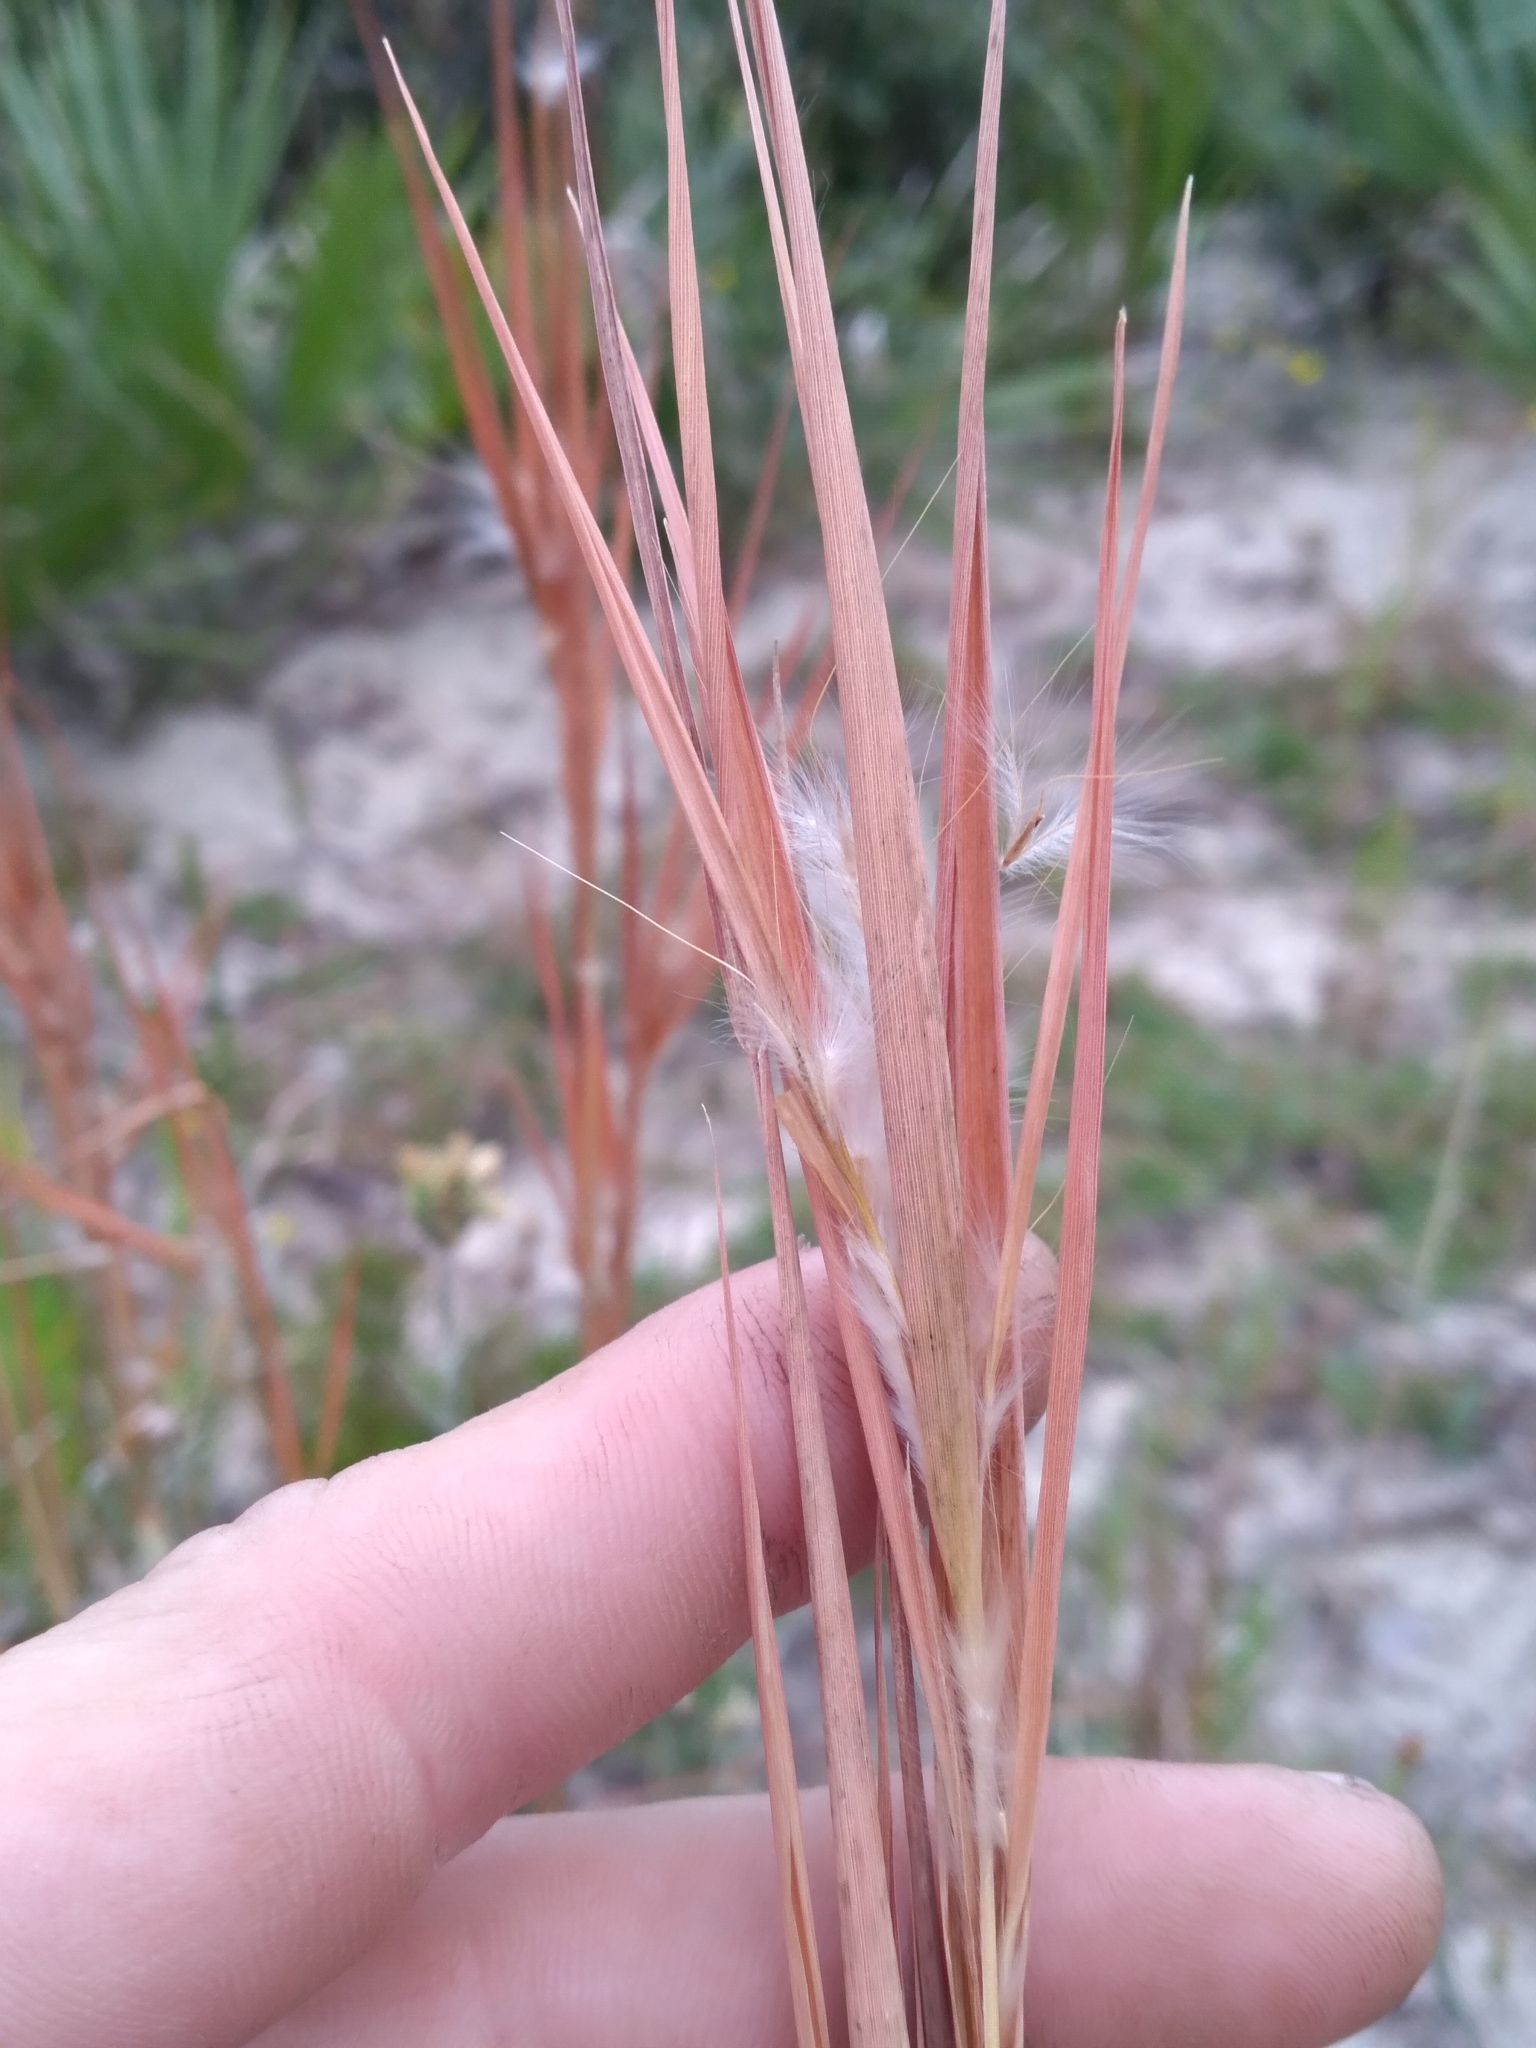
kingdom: Plantae
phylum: Tracheophyta
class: Liliopsida
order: Poales
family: Poaceae
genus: Andropogon
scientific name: Andropogon gyrans
